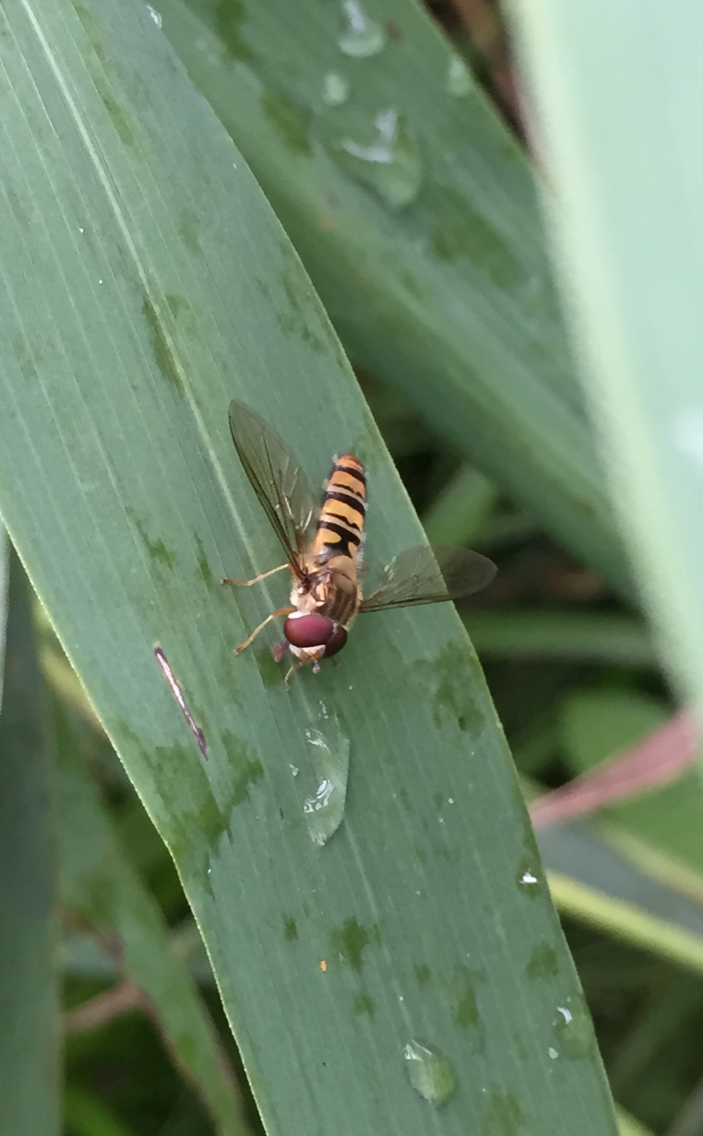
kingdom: Animalia
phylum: Arthropoda
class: Insecta
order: Diptera
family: Syrphidae
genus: Episyrphus
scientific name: Episyrphus balteatus
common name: Marmalade hoverfly
